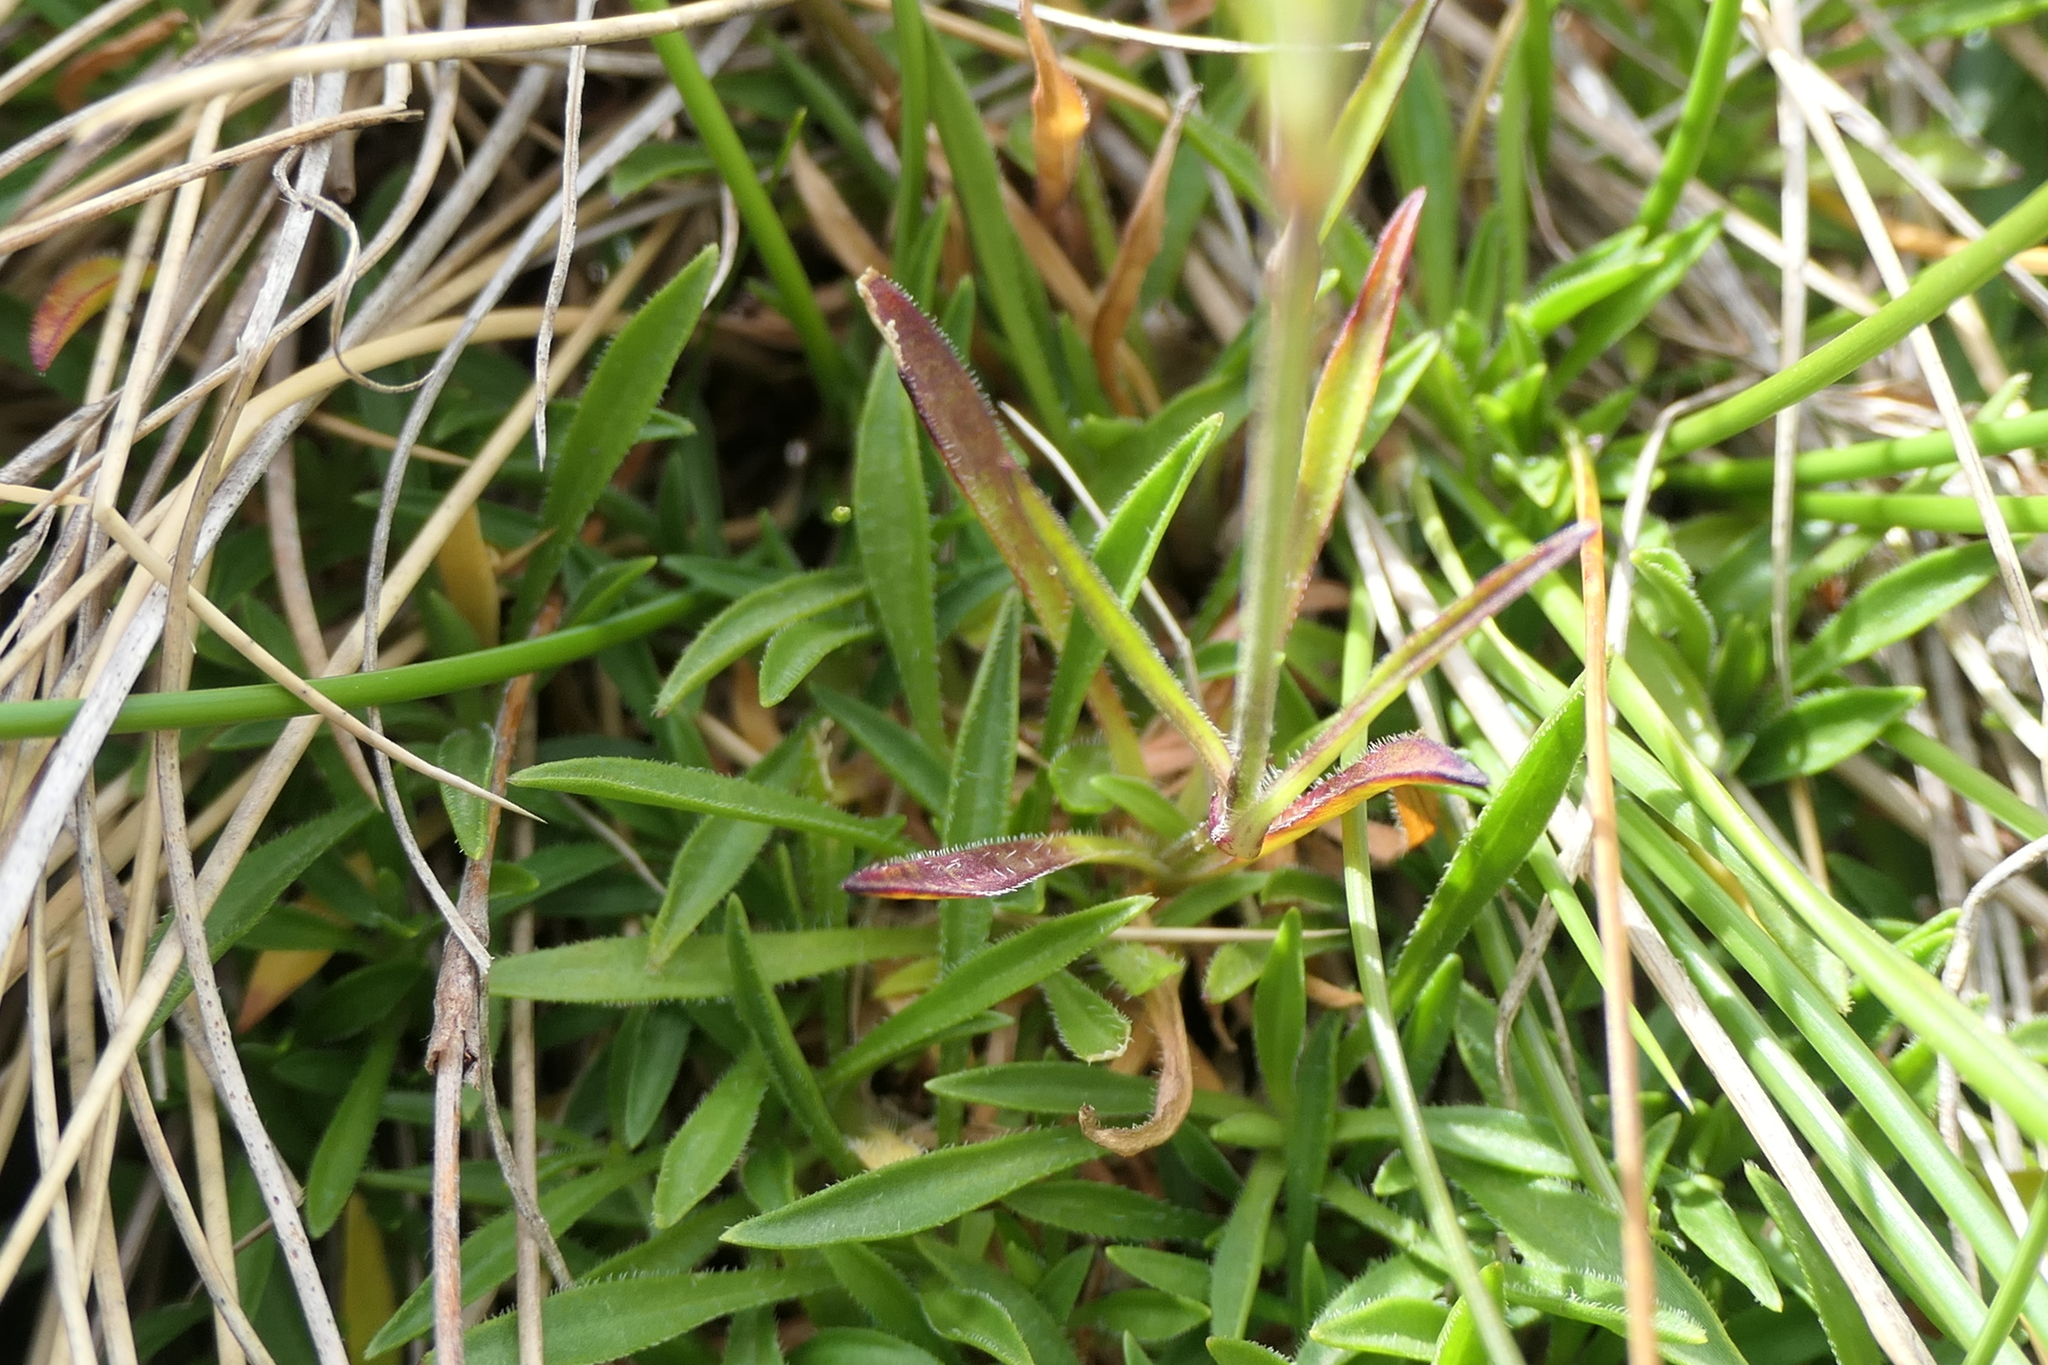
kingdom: Plantae
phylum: Tracheophyta
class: Magnoliopsida
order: Caryophyllales
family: Caryophyllaceae
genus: Silene
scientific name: Silene ciliata
